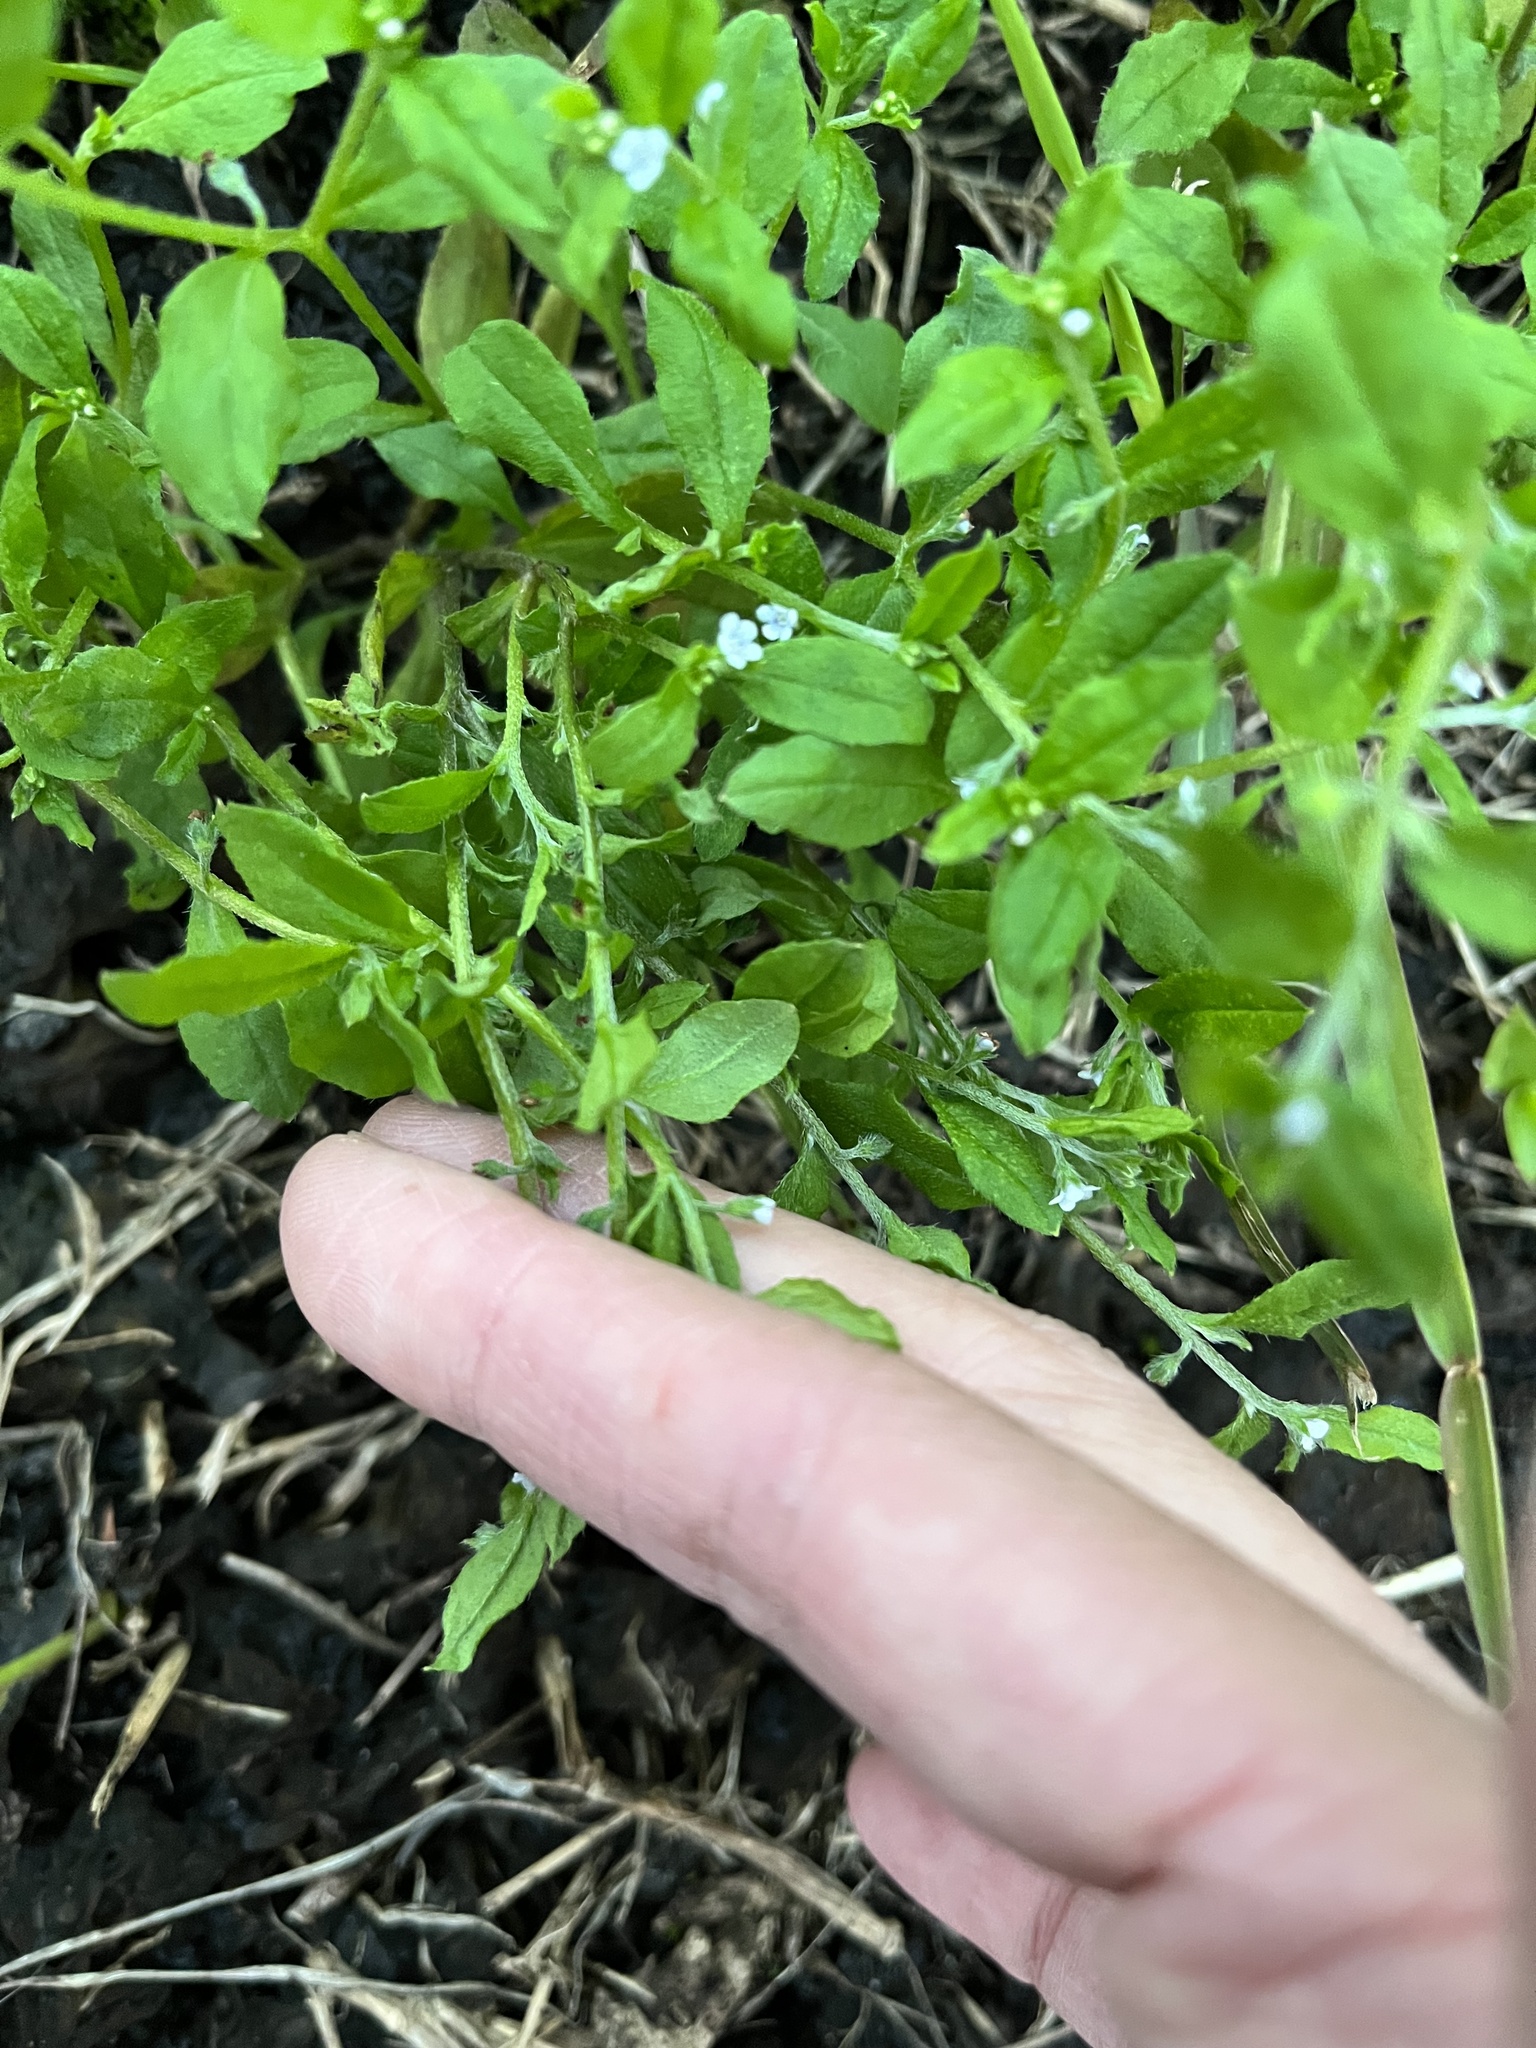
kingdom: Plantae
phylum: Tracheophyta
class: Magnoliopsida
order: Boraginales
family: Boraginaceae
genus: Bothriospermum
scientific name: Bothriospermum zeylanicum
